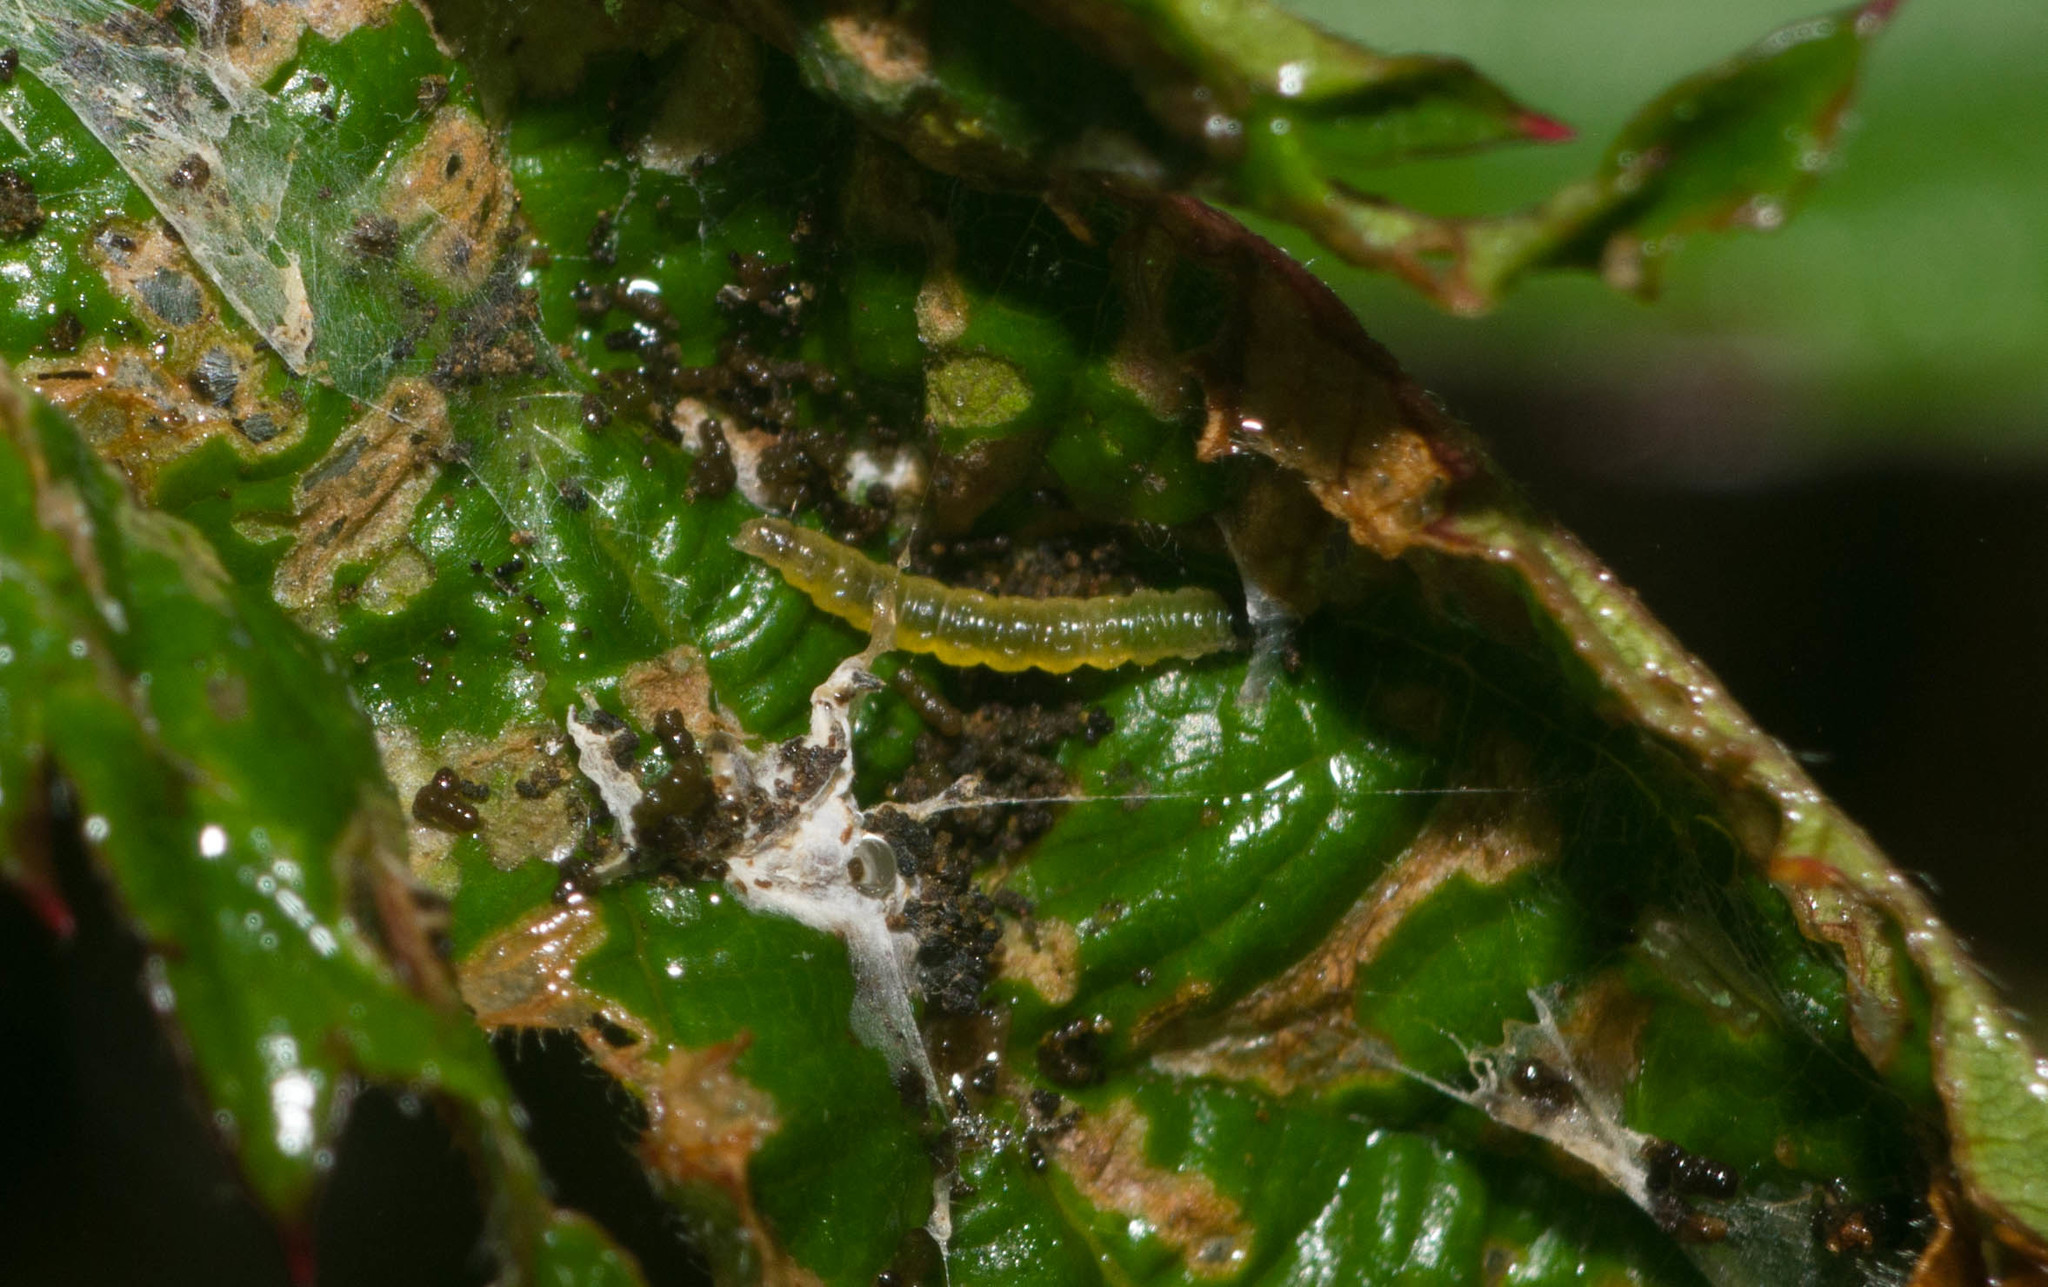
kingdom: Animalia
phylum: Arthropoda
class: Insecta
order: Lepidoptera
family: Tortricidae
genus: Acleris
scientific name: Acleris zimmermani
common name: Tortricid moth
